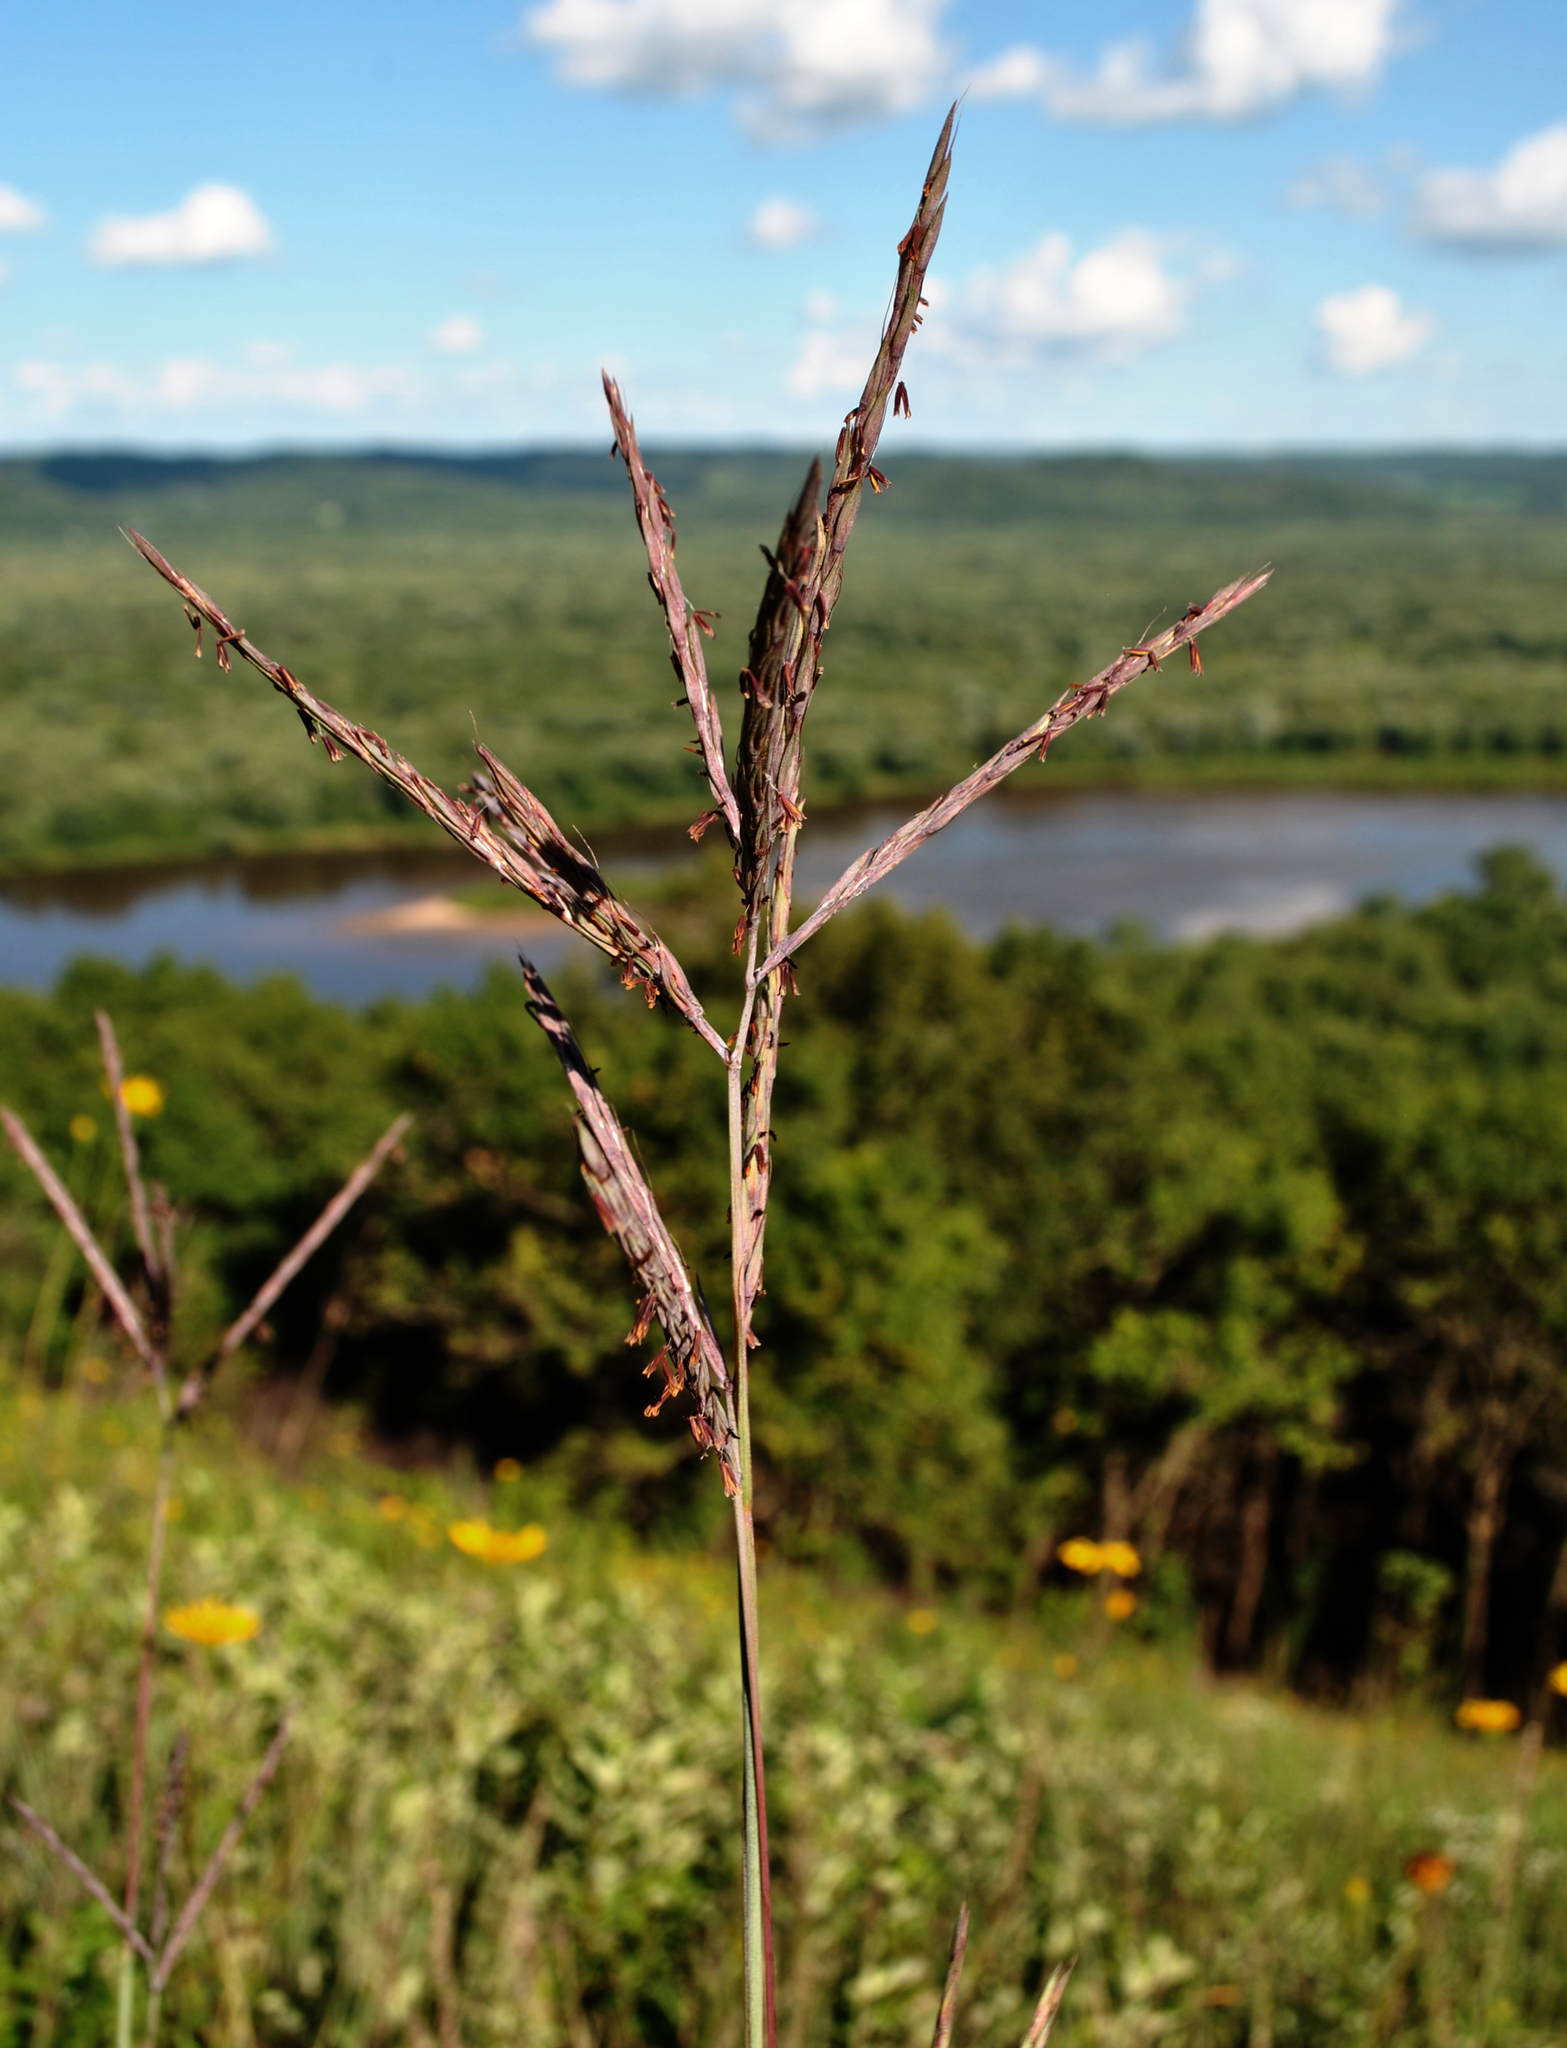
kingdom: Plantae
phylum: Tracheophyta
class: Liliopsida
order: Poales
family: Poaceae
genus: Andropogon
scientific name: Andropogon gerardi
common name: Big bluestem
